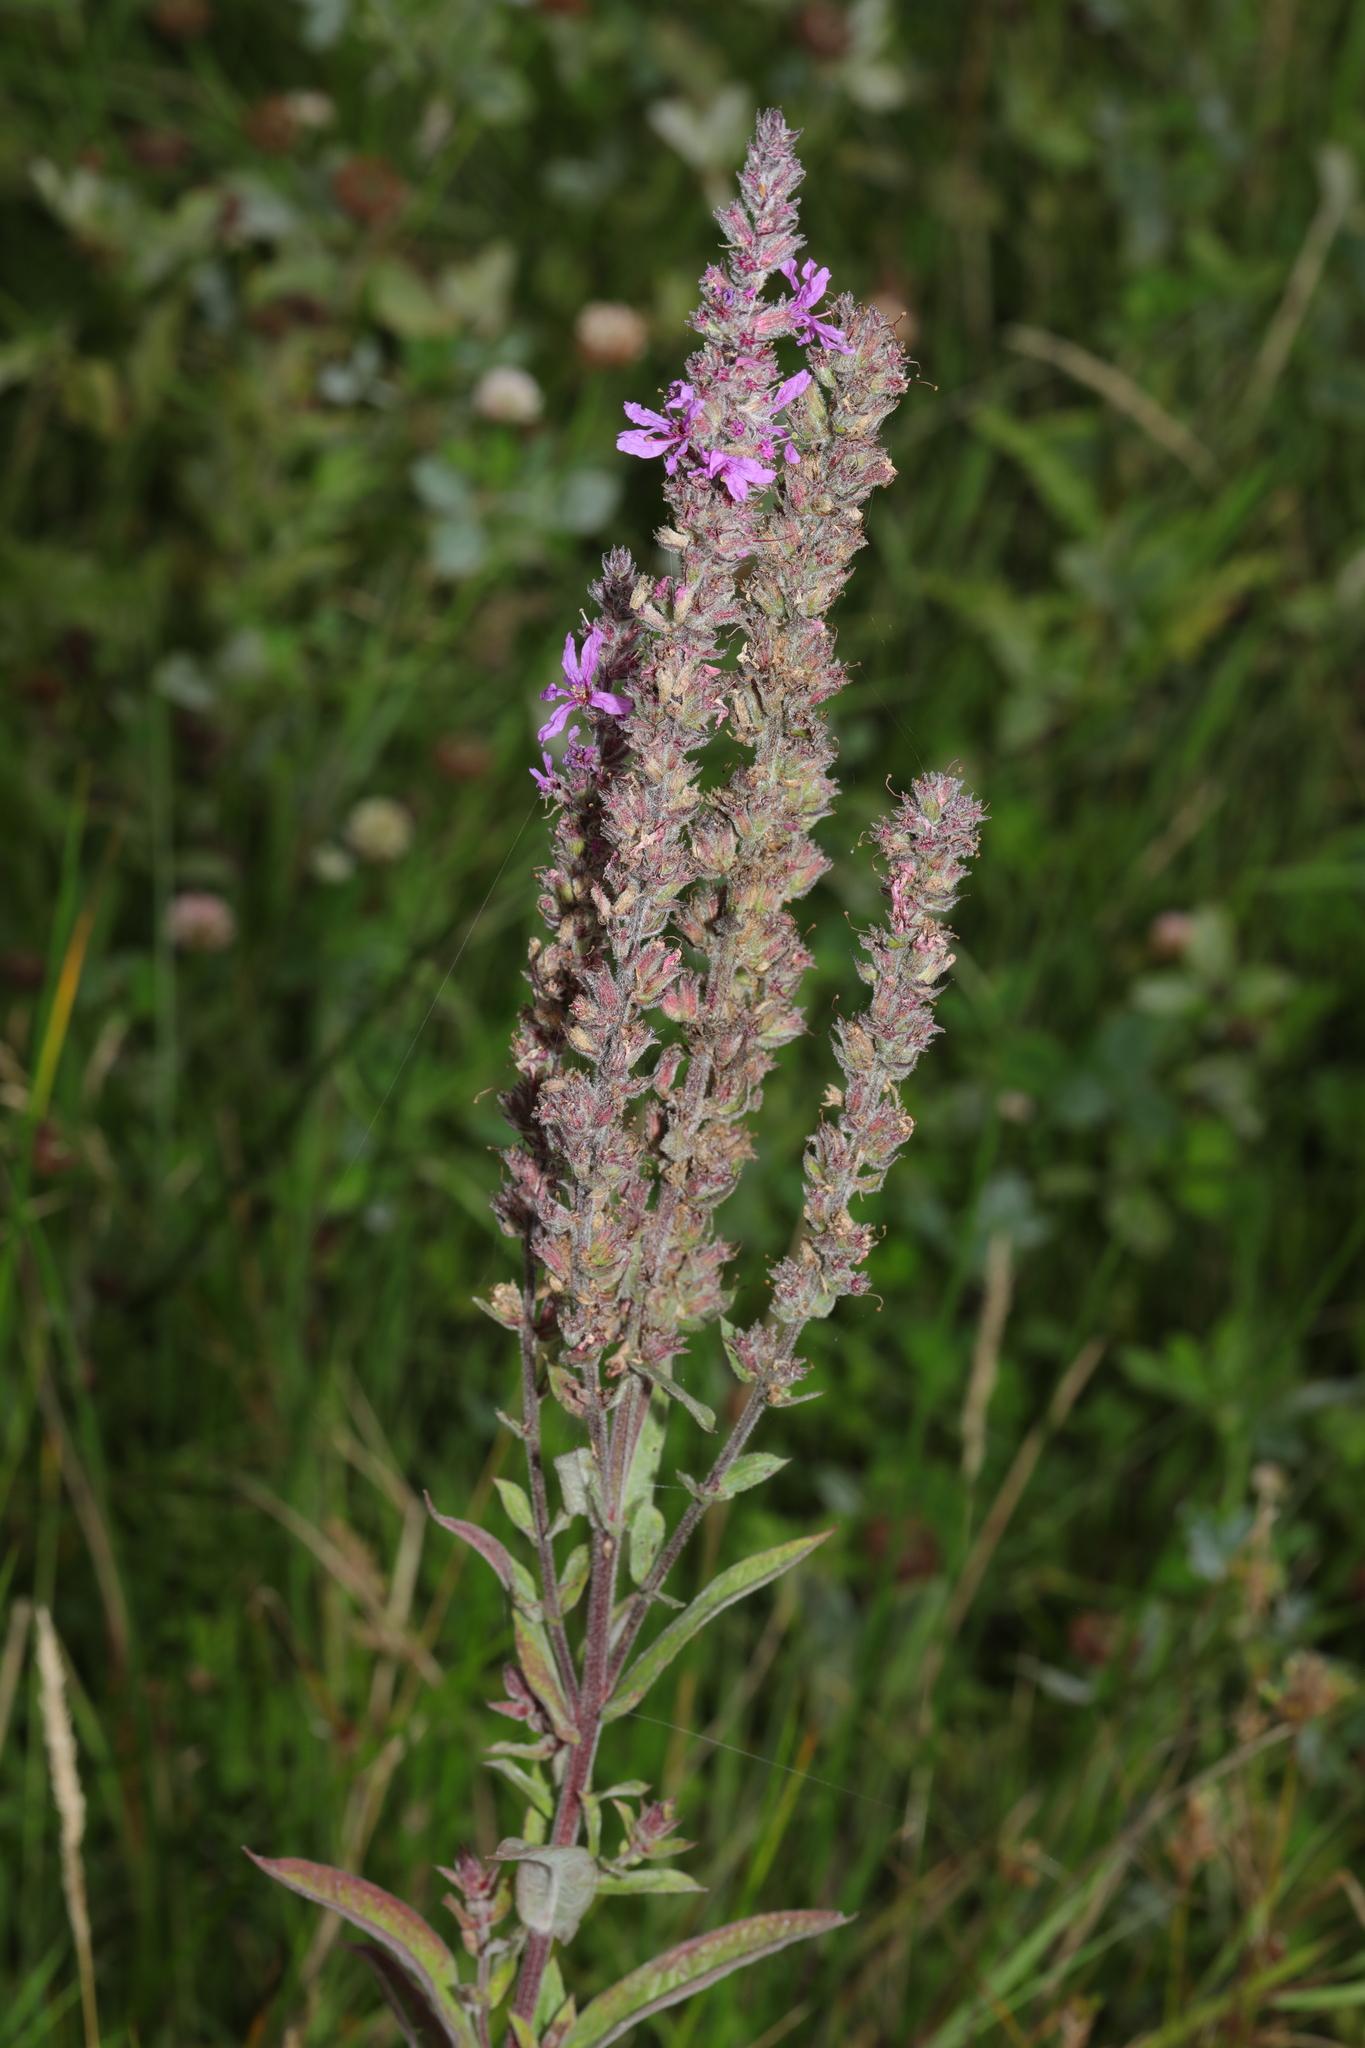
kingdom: Plantae
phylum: Tracheophyta
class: Magnoliopsida
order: Myrtales
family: Lythraceae
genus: Lythrum
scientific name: Lythrum salicaria
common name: Purple loosestrife
